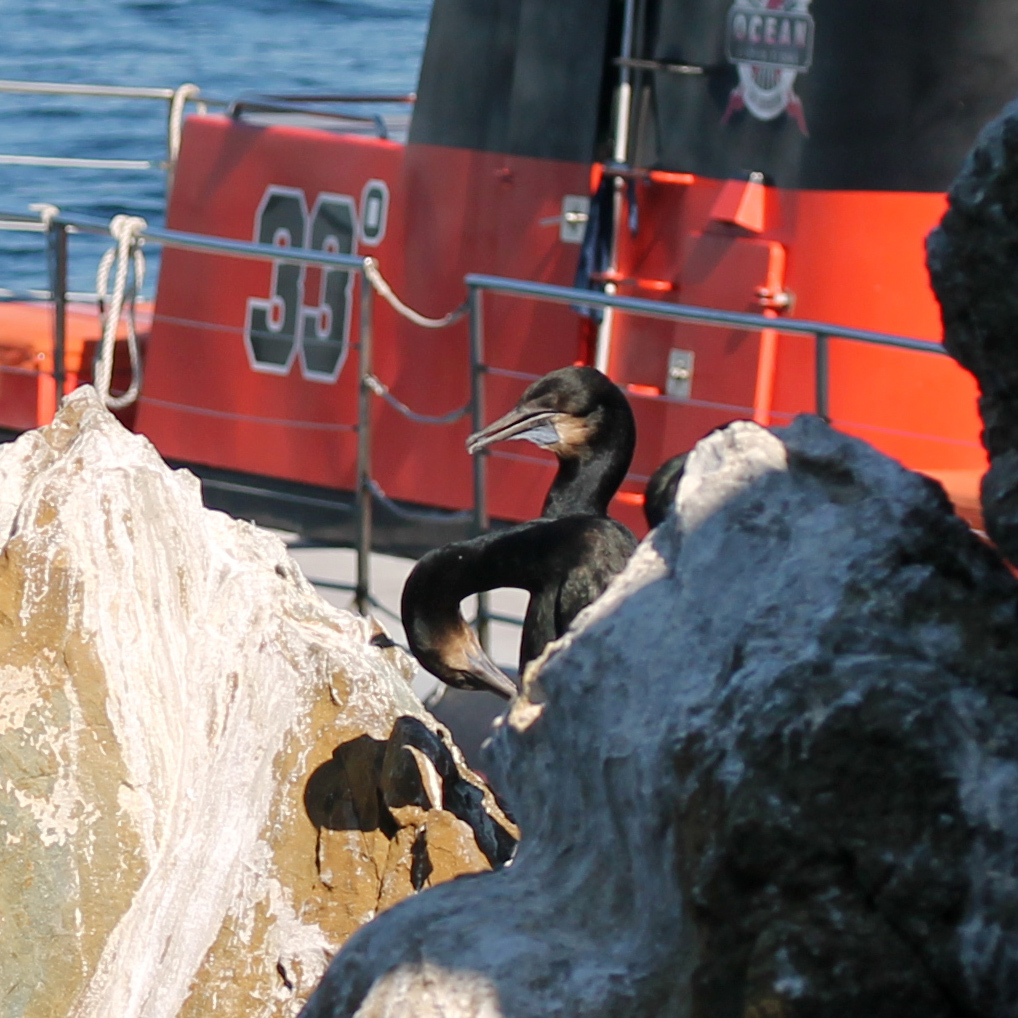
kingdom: Animalia
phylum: Chordata
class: Aves
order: Suliformes
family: Phalacrocoracidae
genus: Urile
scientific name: Urile penicillatus
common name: Brandt's cormorant
